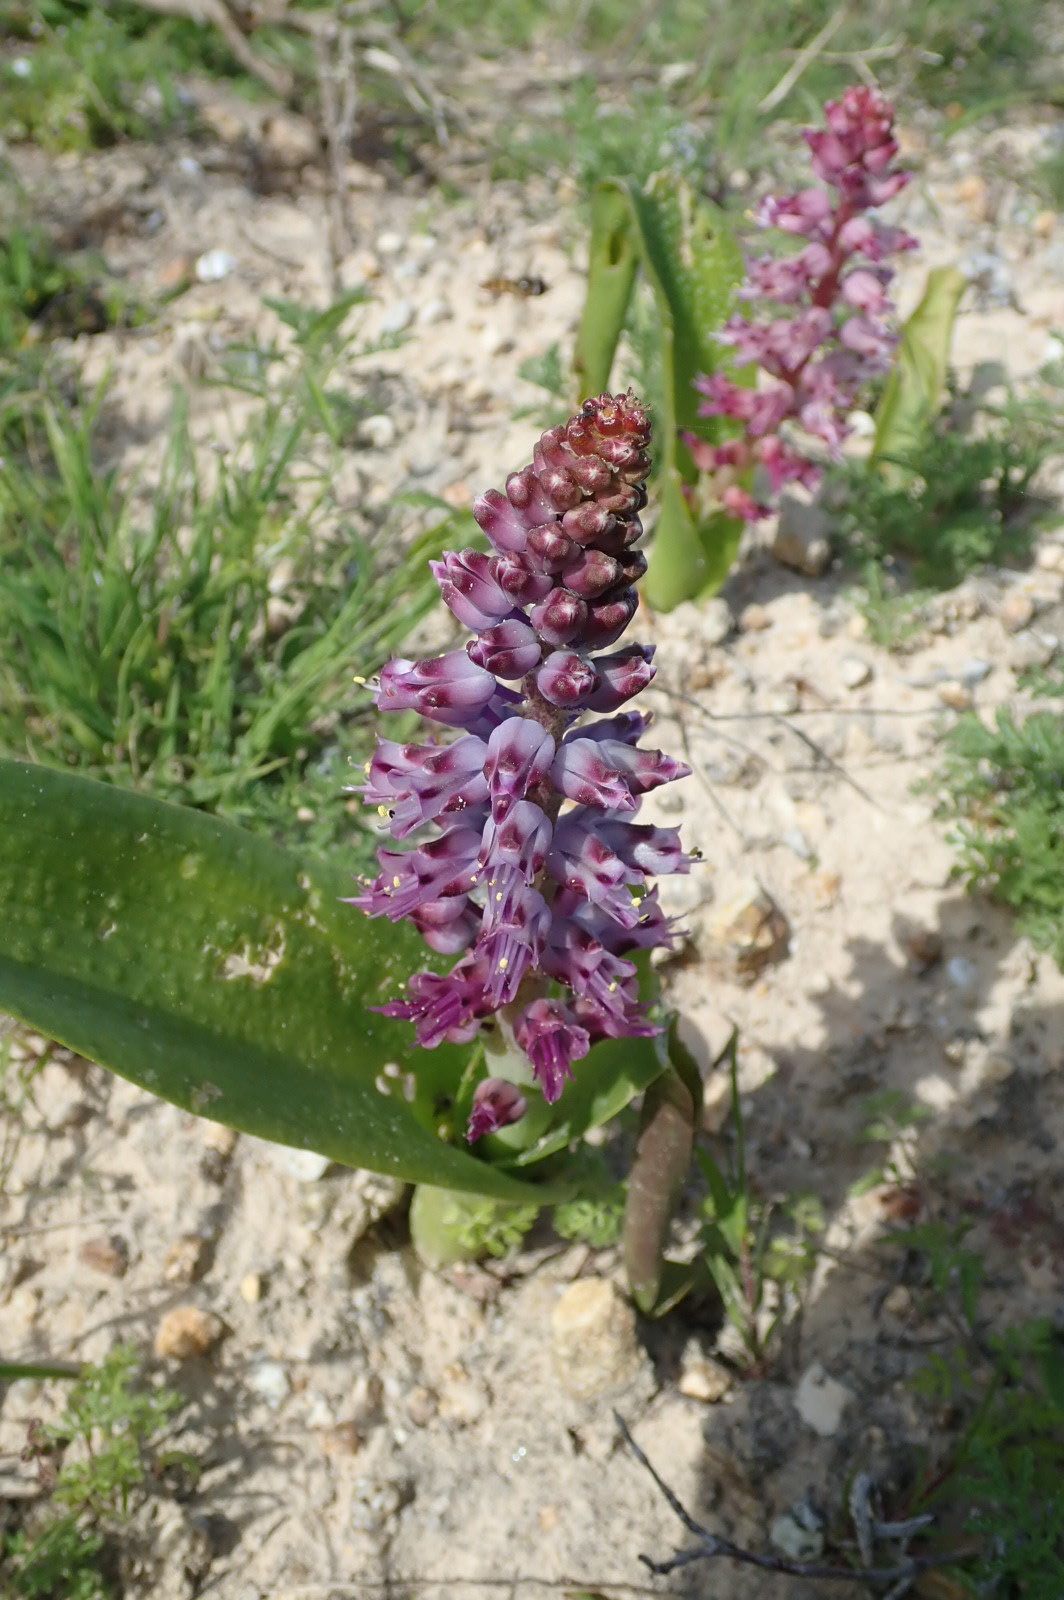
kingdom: Plantae
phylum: Tracheophyta
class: Liliopsida
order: Asparagales
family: Asparagaceae
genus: Lachenalia
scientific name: Lachenalia pallida
